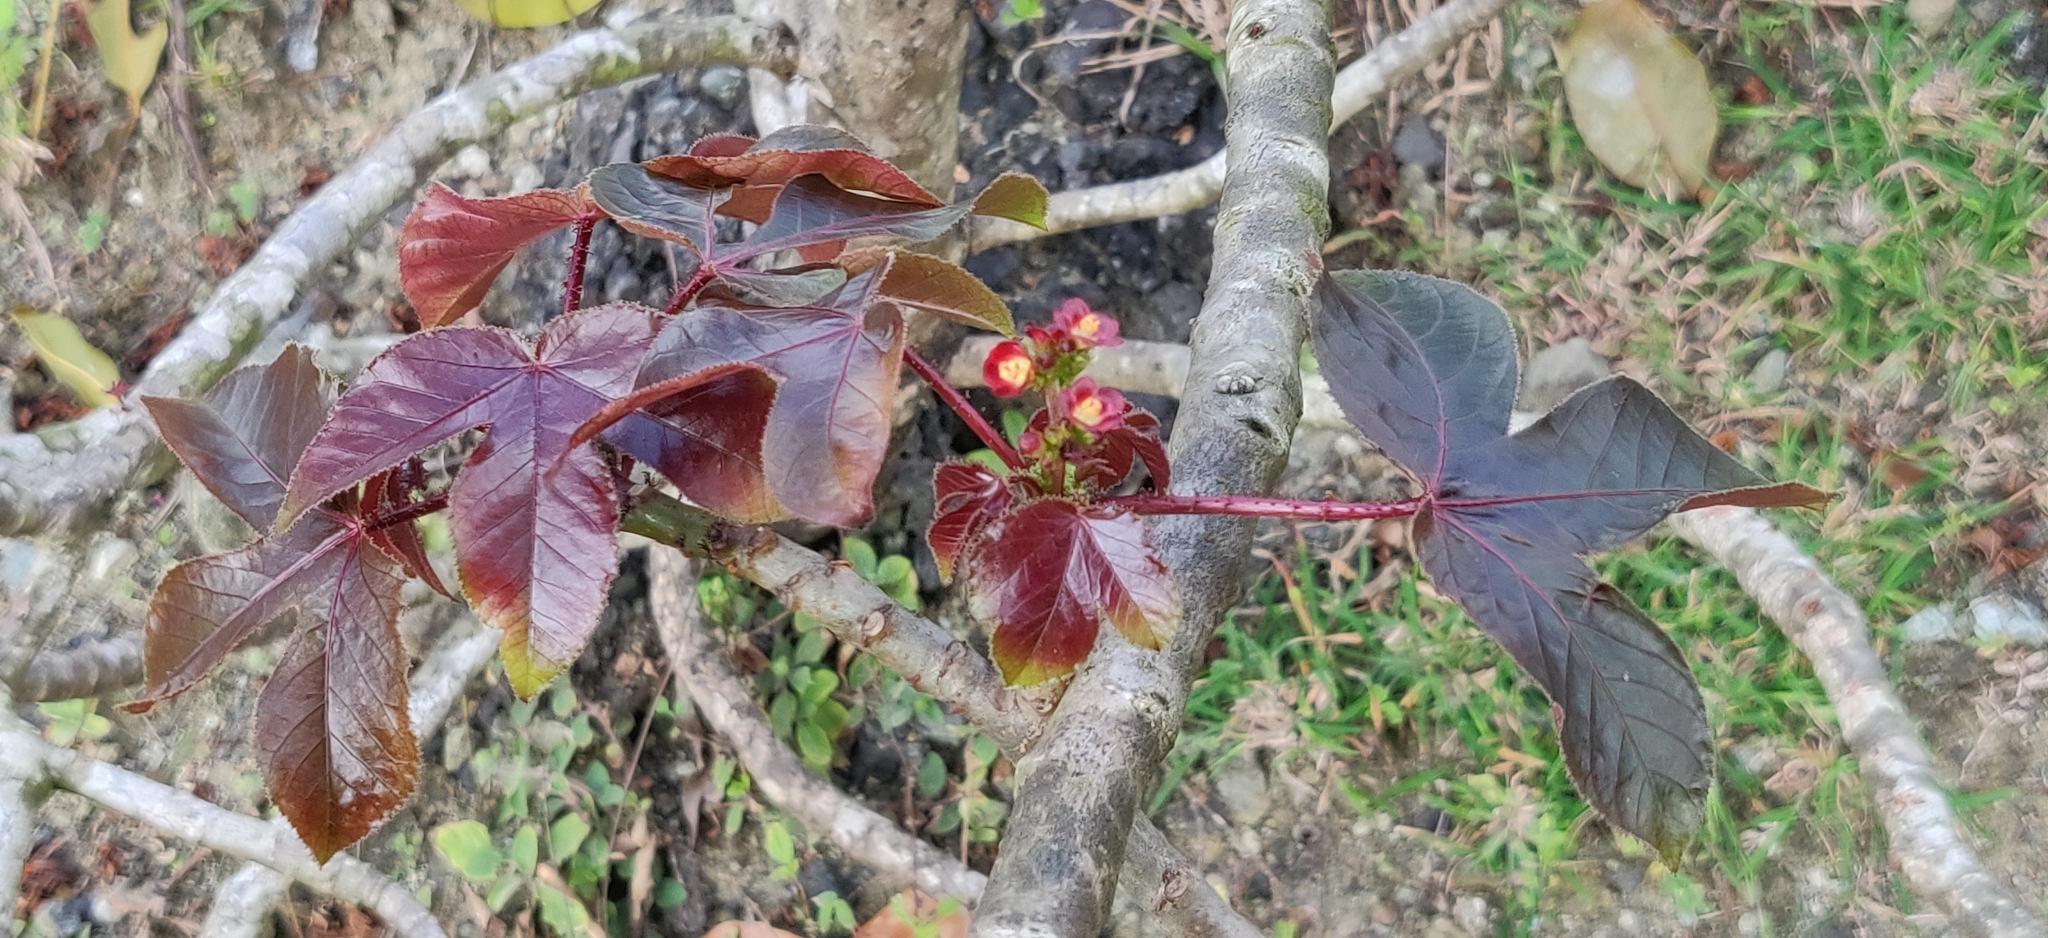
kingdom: Plantae
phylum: Tracheophyta
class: Magnoliopsida
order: Malpighiales
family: Euphorbiaceae
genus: Jatropha
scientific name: Jatropha gossypiifolia
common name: Bellyache bush
